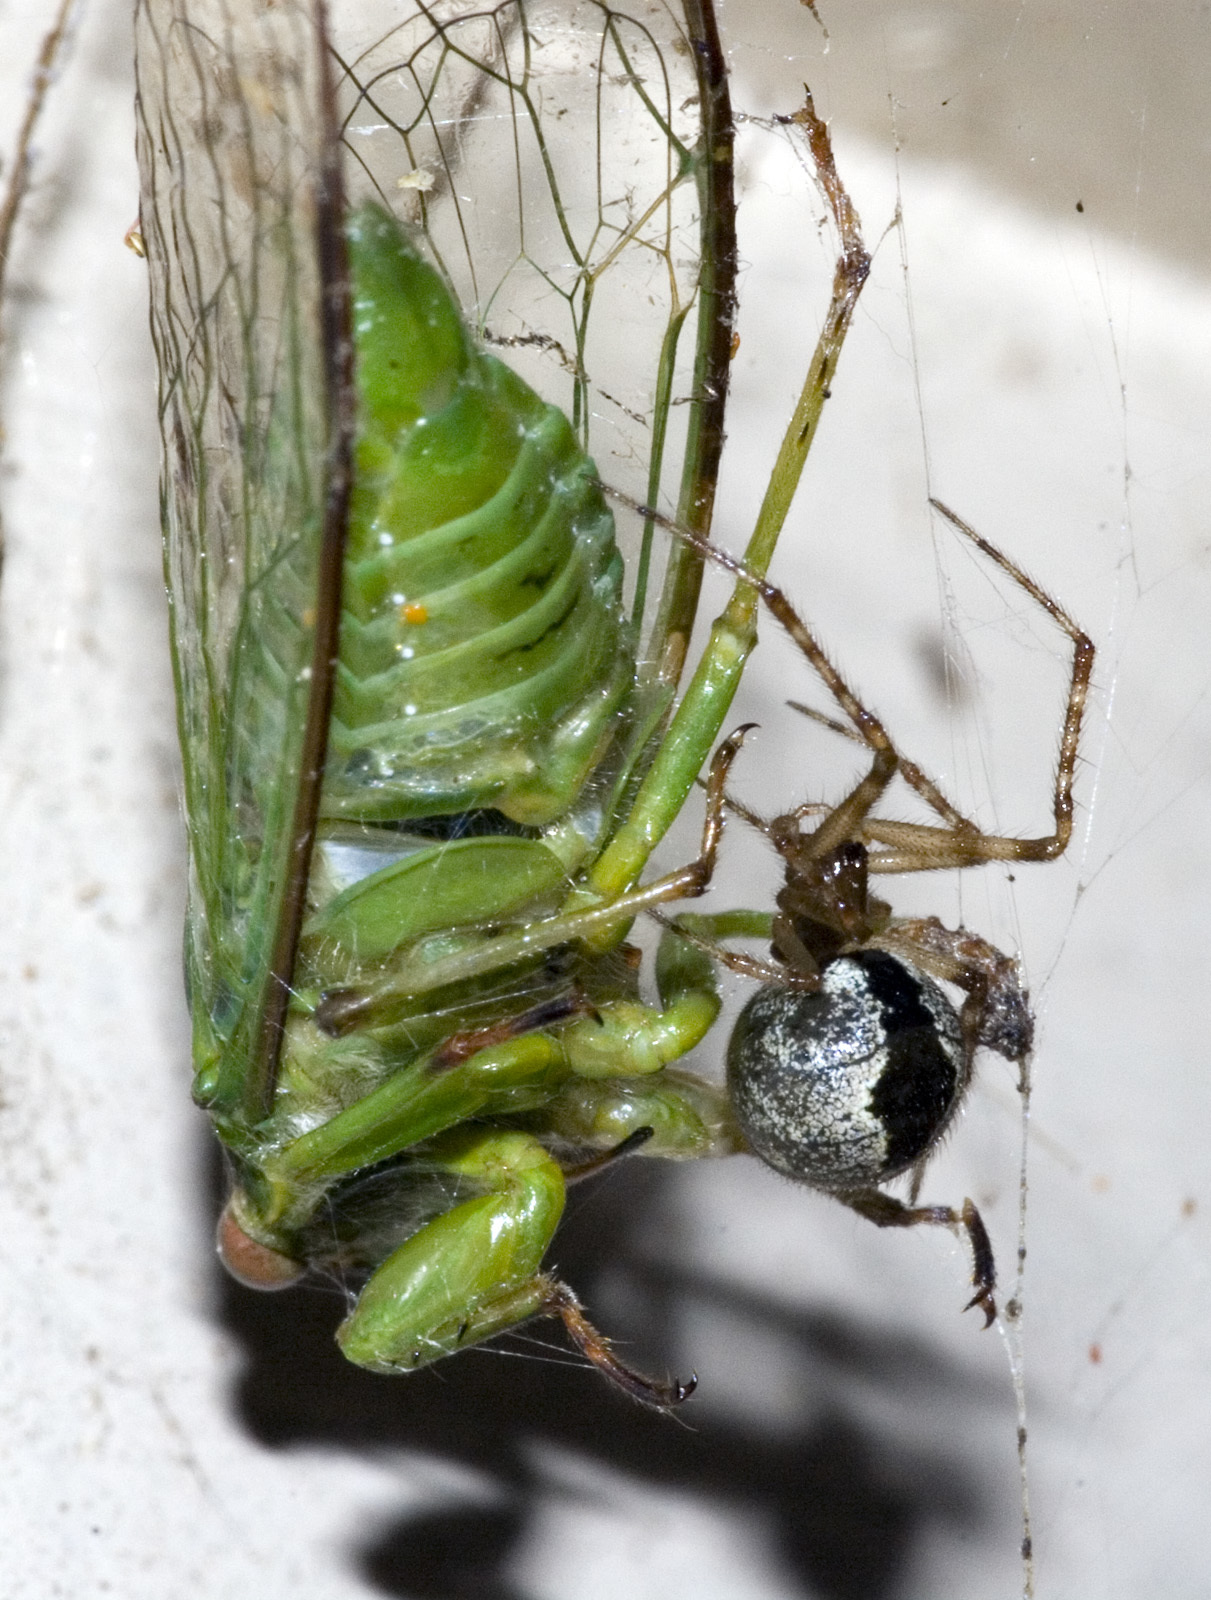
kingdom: Animalia
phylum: Arthropoda
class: Arachnida
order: Araneae
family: Theridiidae
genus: Cryptachaea
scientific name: Cryptachaea veruculata
